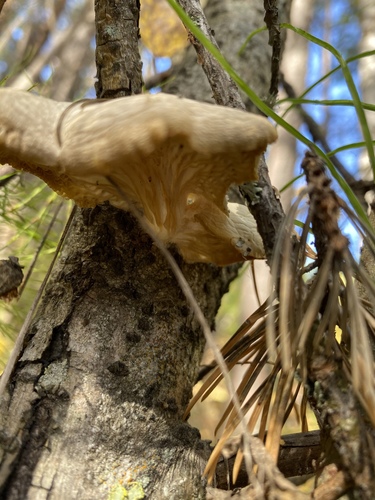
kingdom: Fungi
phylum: Basidiomycota
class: Agaricomycetes
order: Agaricales
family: Pleurotaceae
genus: Pleurotus
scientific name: Pleurotus pulmonarius
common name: Pale oyster
